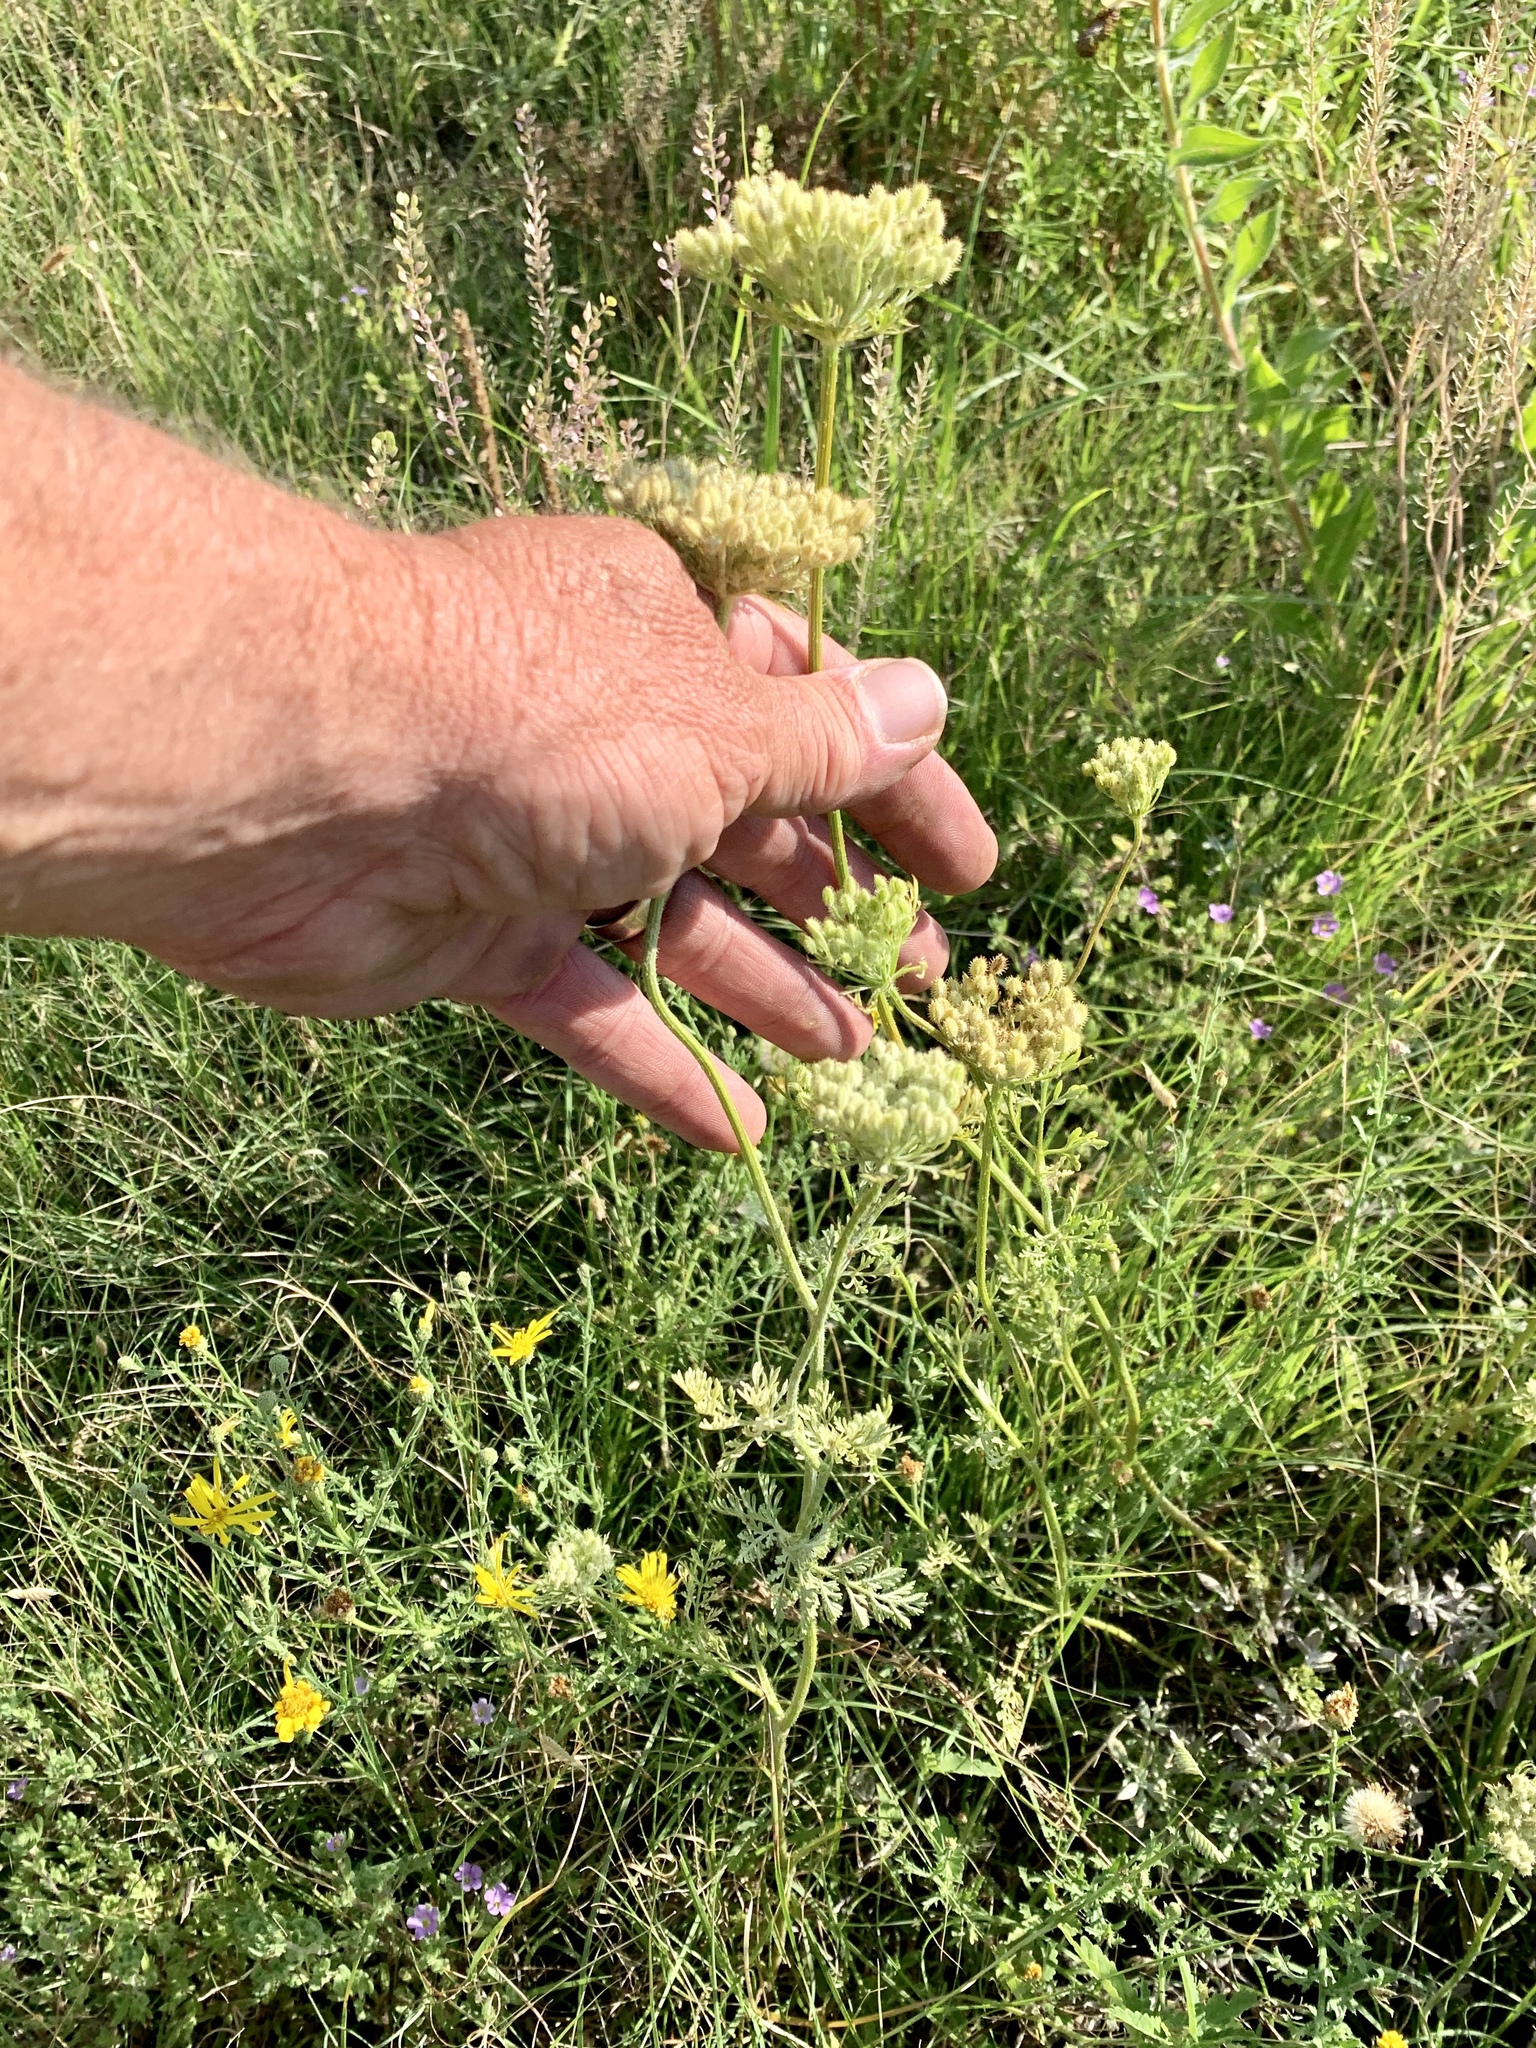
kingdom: Plantae
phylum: Tracheophyta
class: Magnoliopsida
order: Apiales
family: Apiaceae
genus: Daucus
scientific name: Daucus pusillus
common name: Southwest wild carrot
